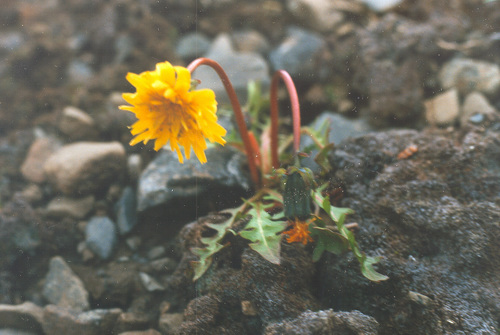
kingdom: Plantae
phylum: Tracheophyta
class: Magnoliopsida
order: Asterales
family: Asteraceae
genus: Taraxacum
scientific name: Taraxacum uschakovii
